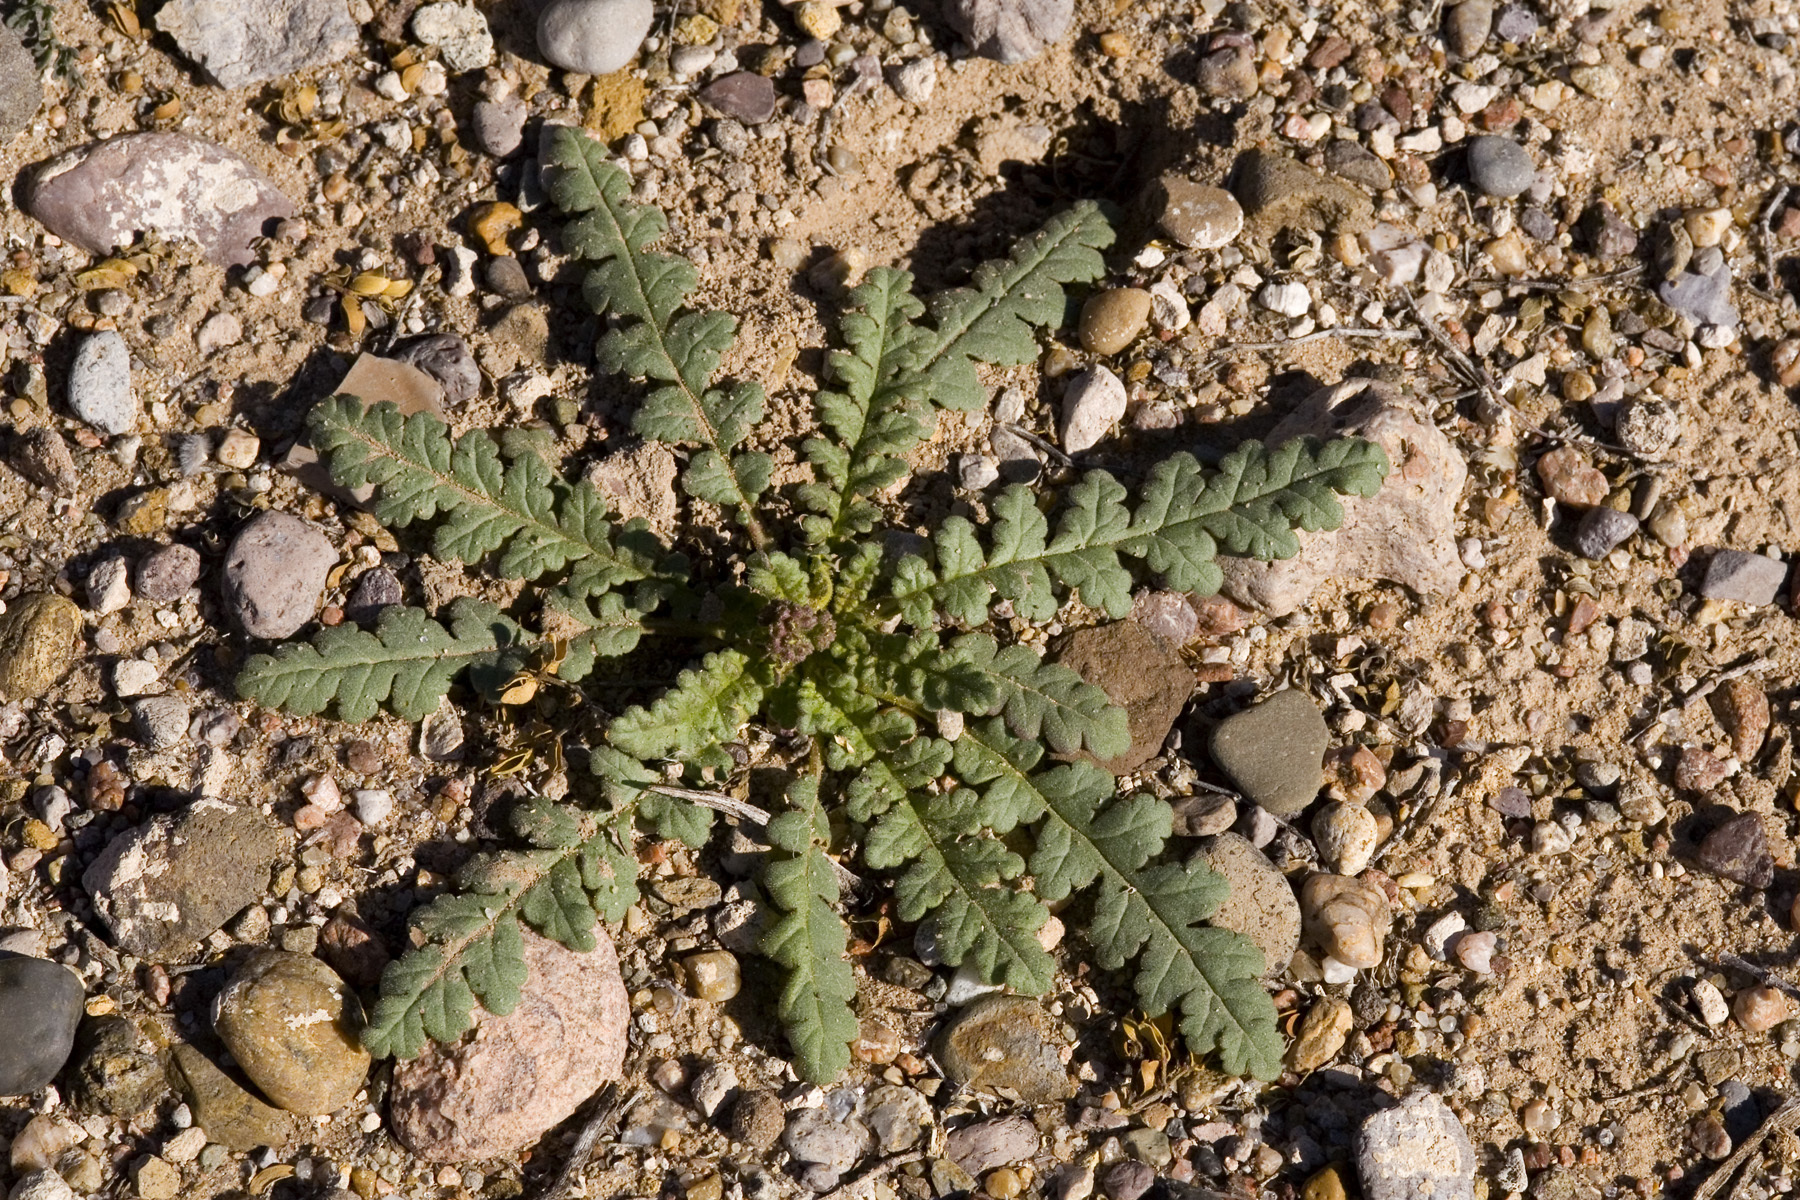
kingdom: Plantae
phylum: Tracheophyta
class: Magnoliopsida
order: Boraginales
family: Hydrophyllaceae
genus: Phacelia
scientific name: Phacelia integrifolia
